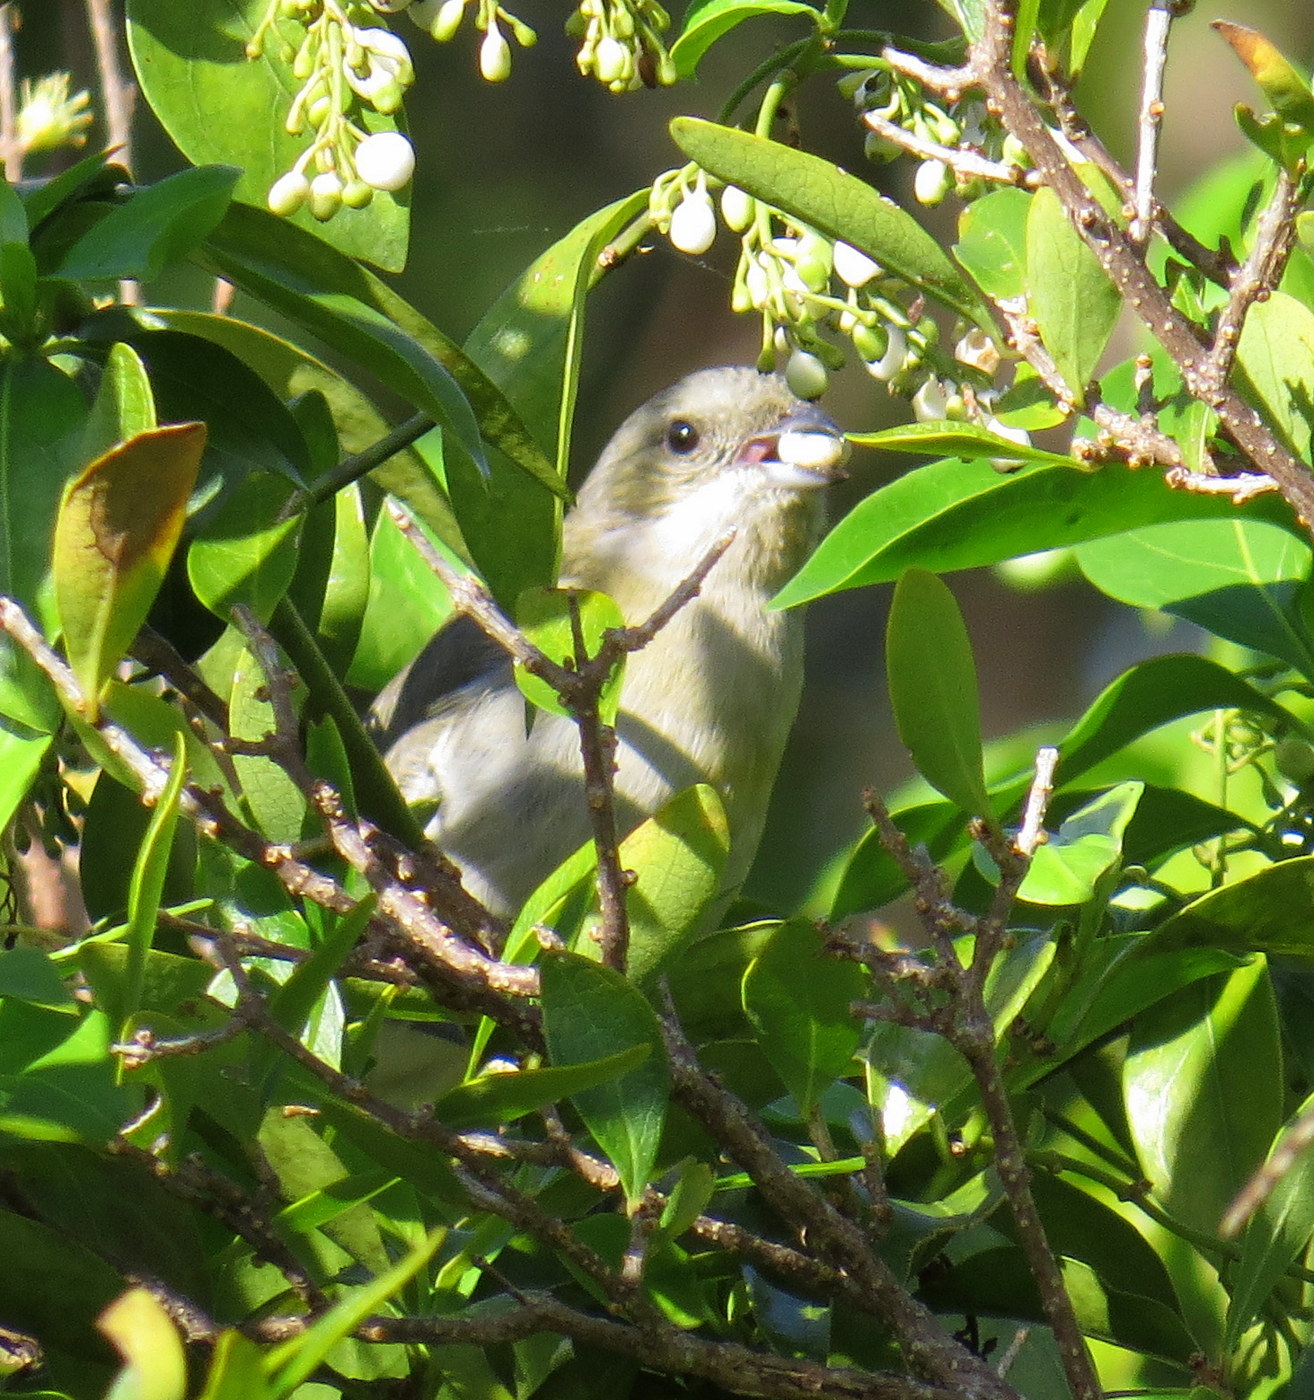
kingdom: Animalia
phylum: Chordata
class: Aves
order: Passeriformes
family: Spindalidae
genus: Spindalis
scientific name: Spindalis zena
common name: Western spindalis
